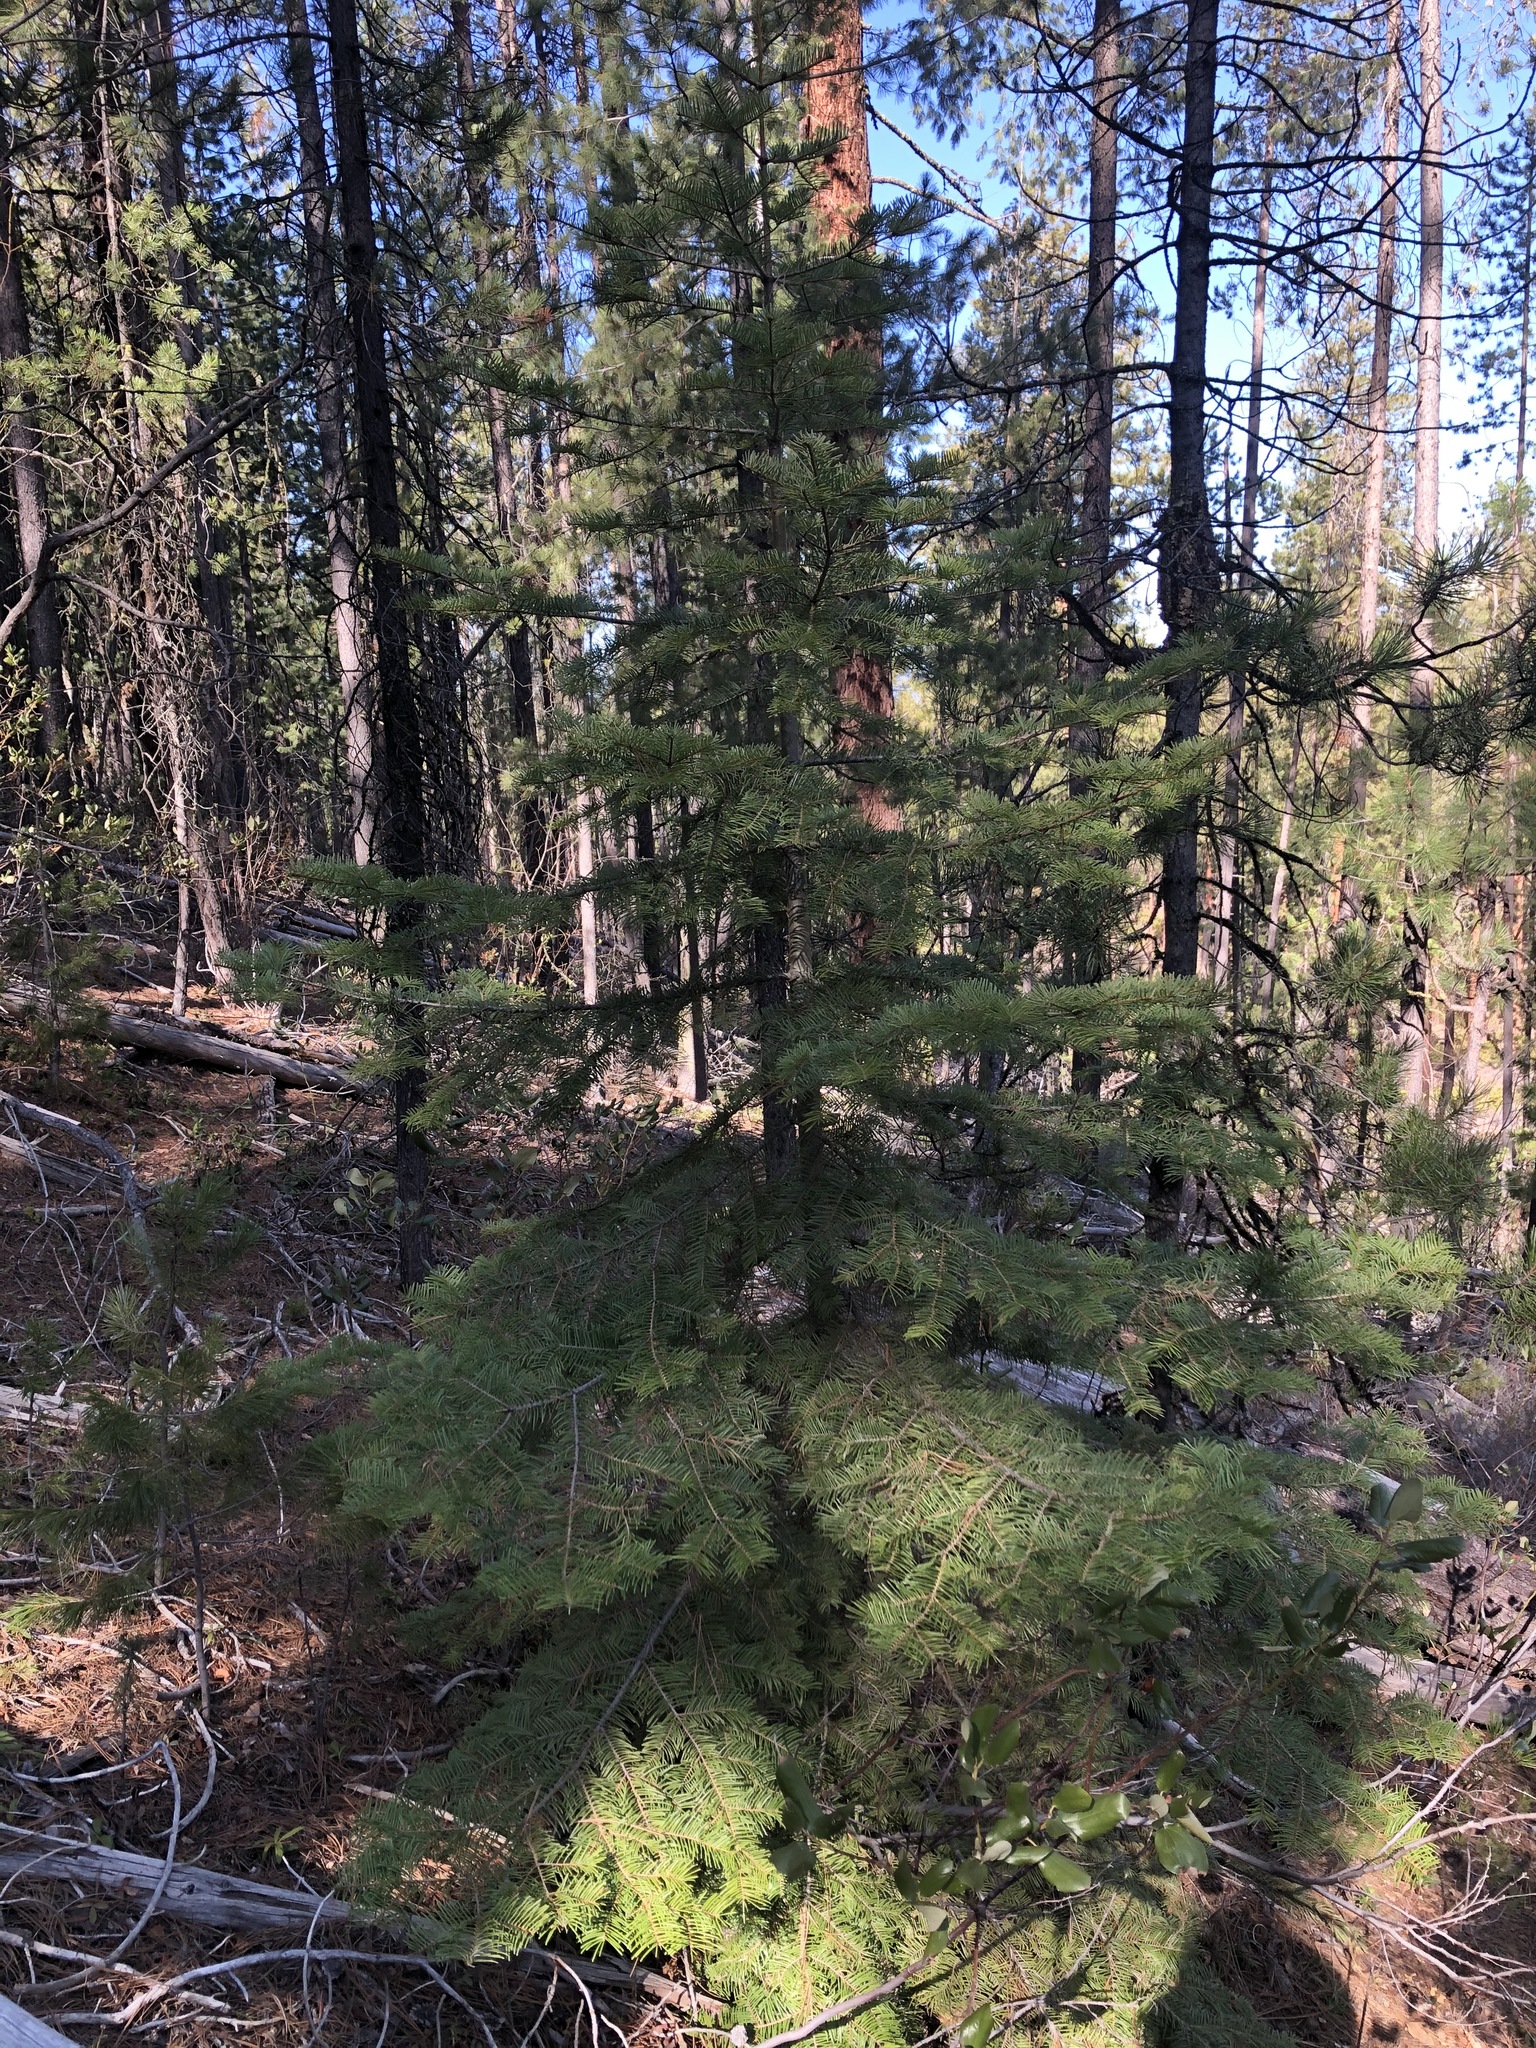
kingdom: Plantae
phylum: Tracheophyta
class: Pinopsida
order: Pinales
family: Pinaceae
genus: Abies
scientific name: Abies grandis
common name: Giant fir
